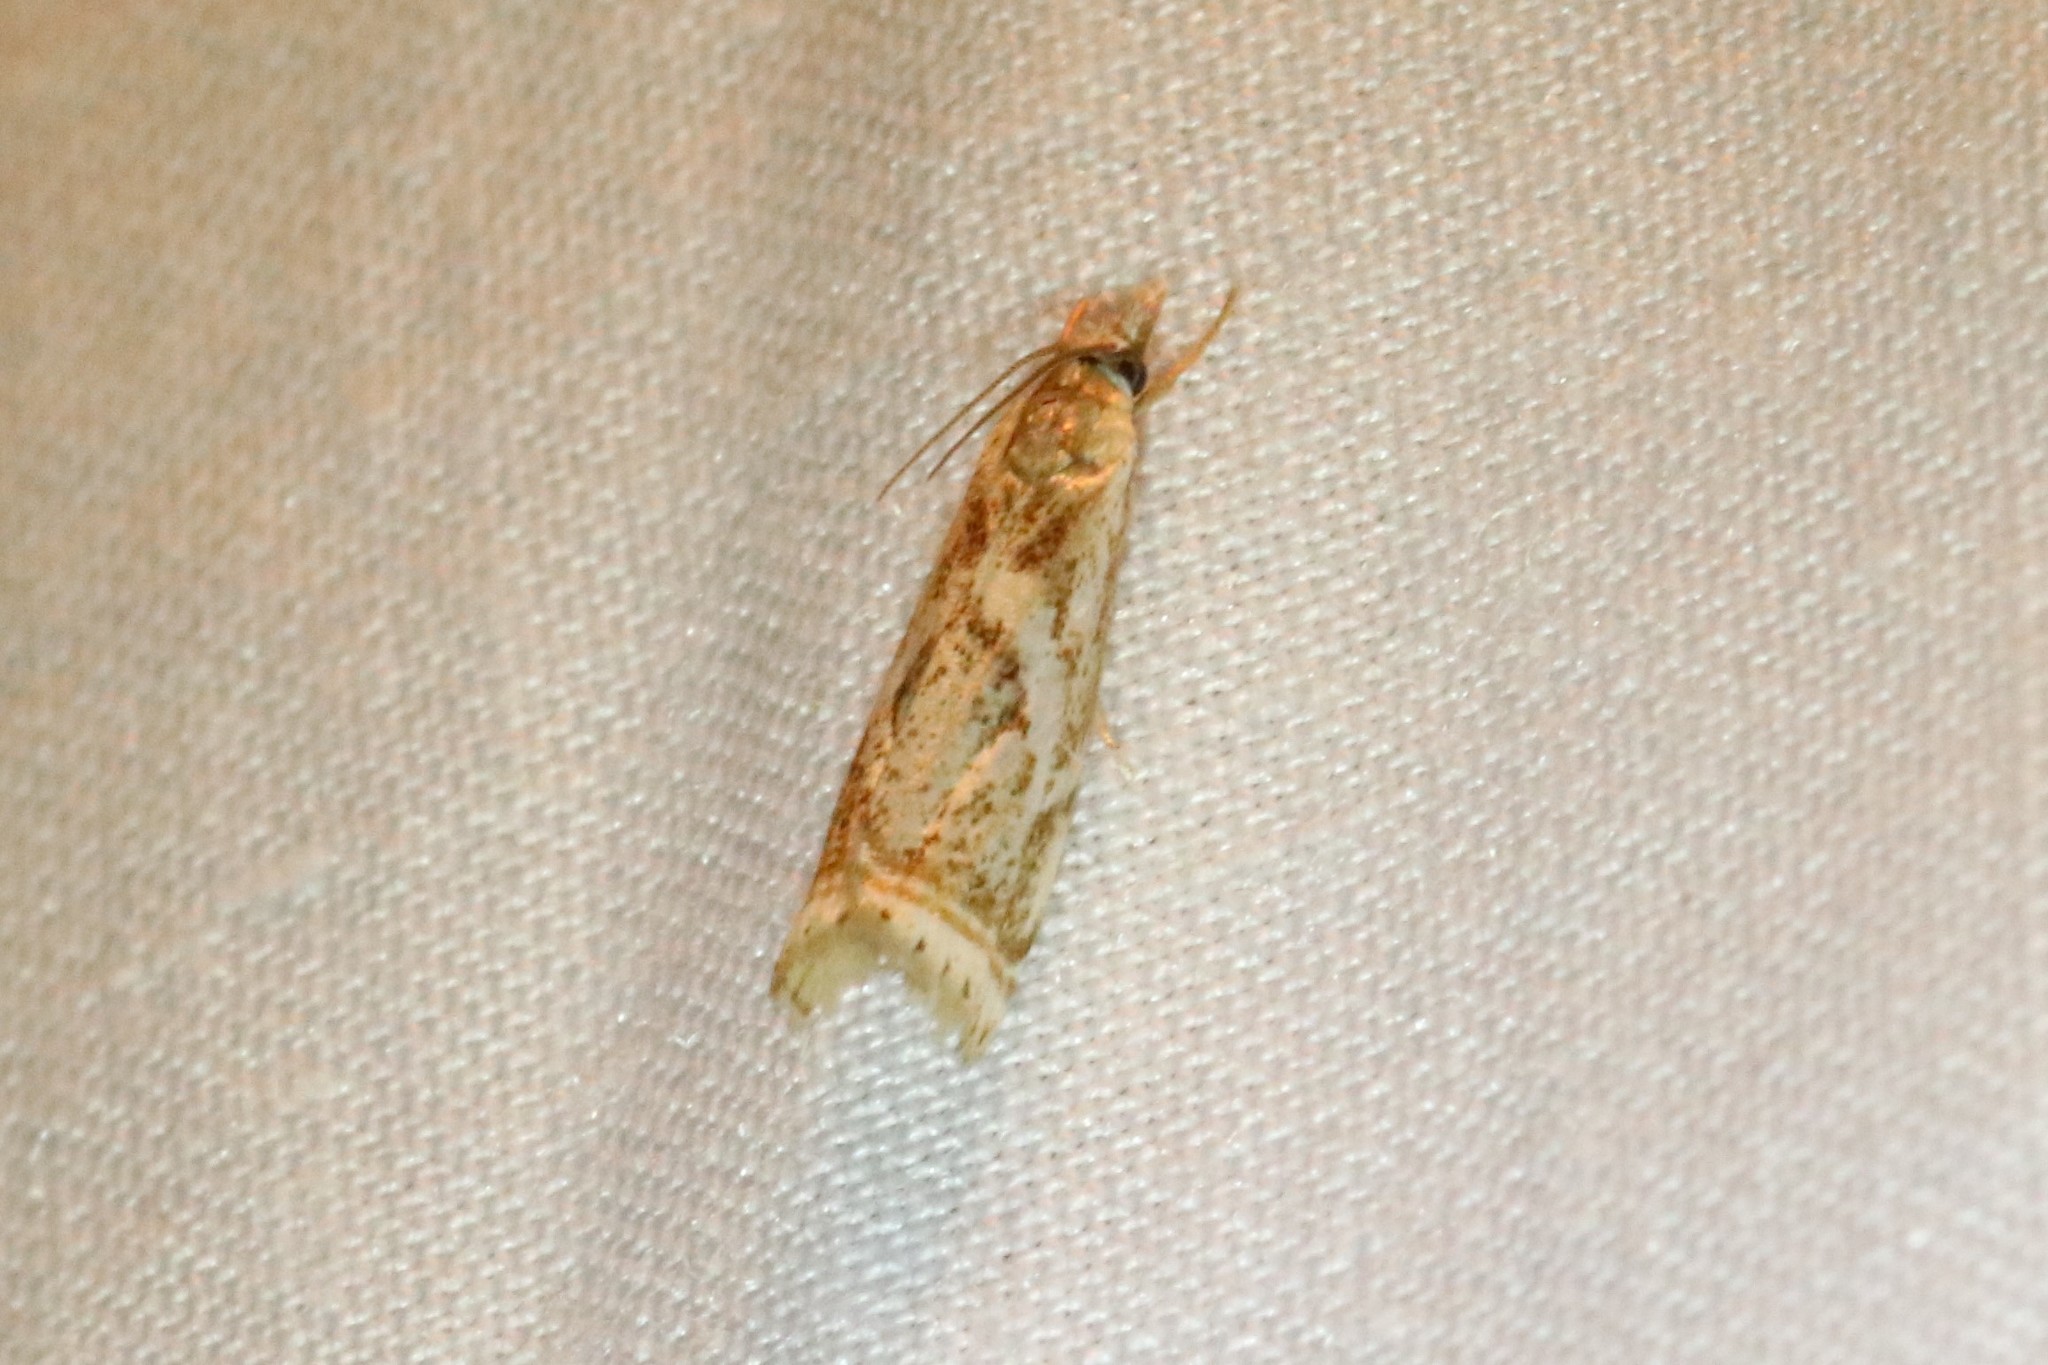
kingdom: Animalia
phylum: Arthropoda
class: Insecta
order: Lepidoptera
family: Crambidae
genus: Microcrambus
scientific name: Microcrambus elegans
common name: Elegant grass-veneer
